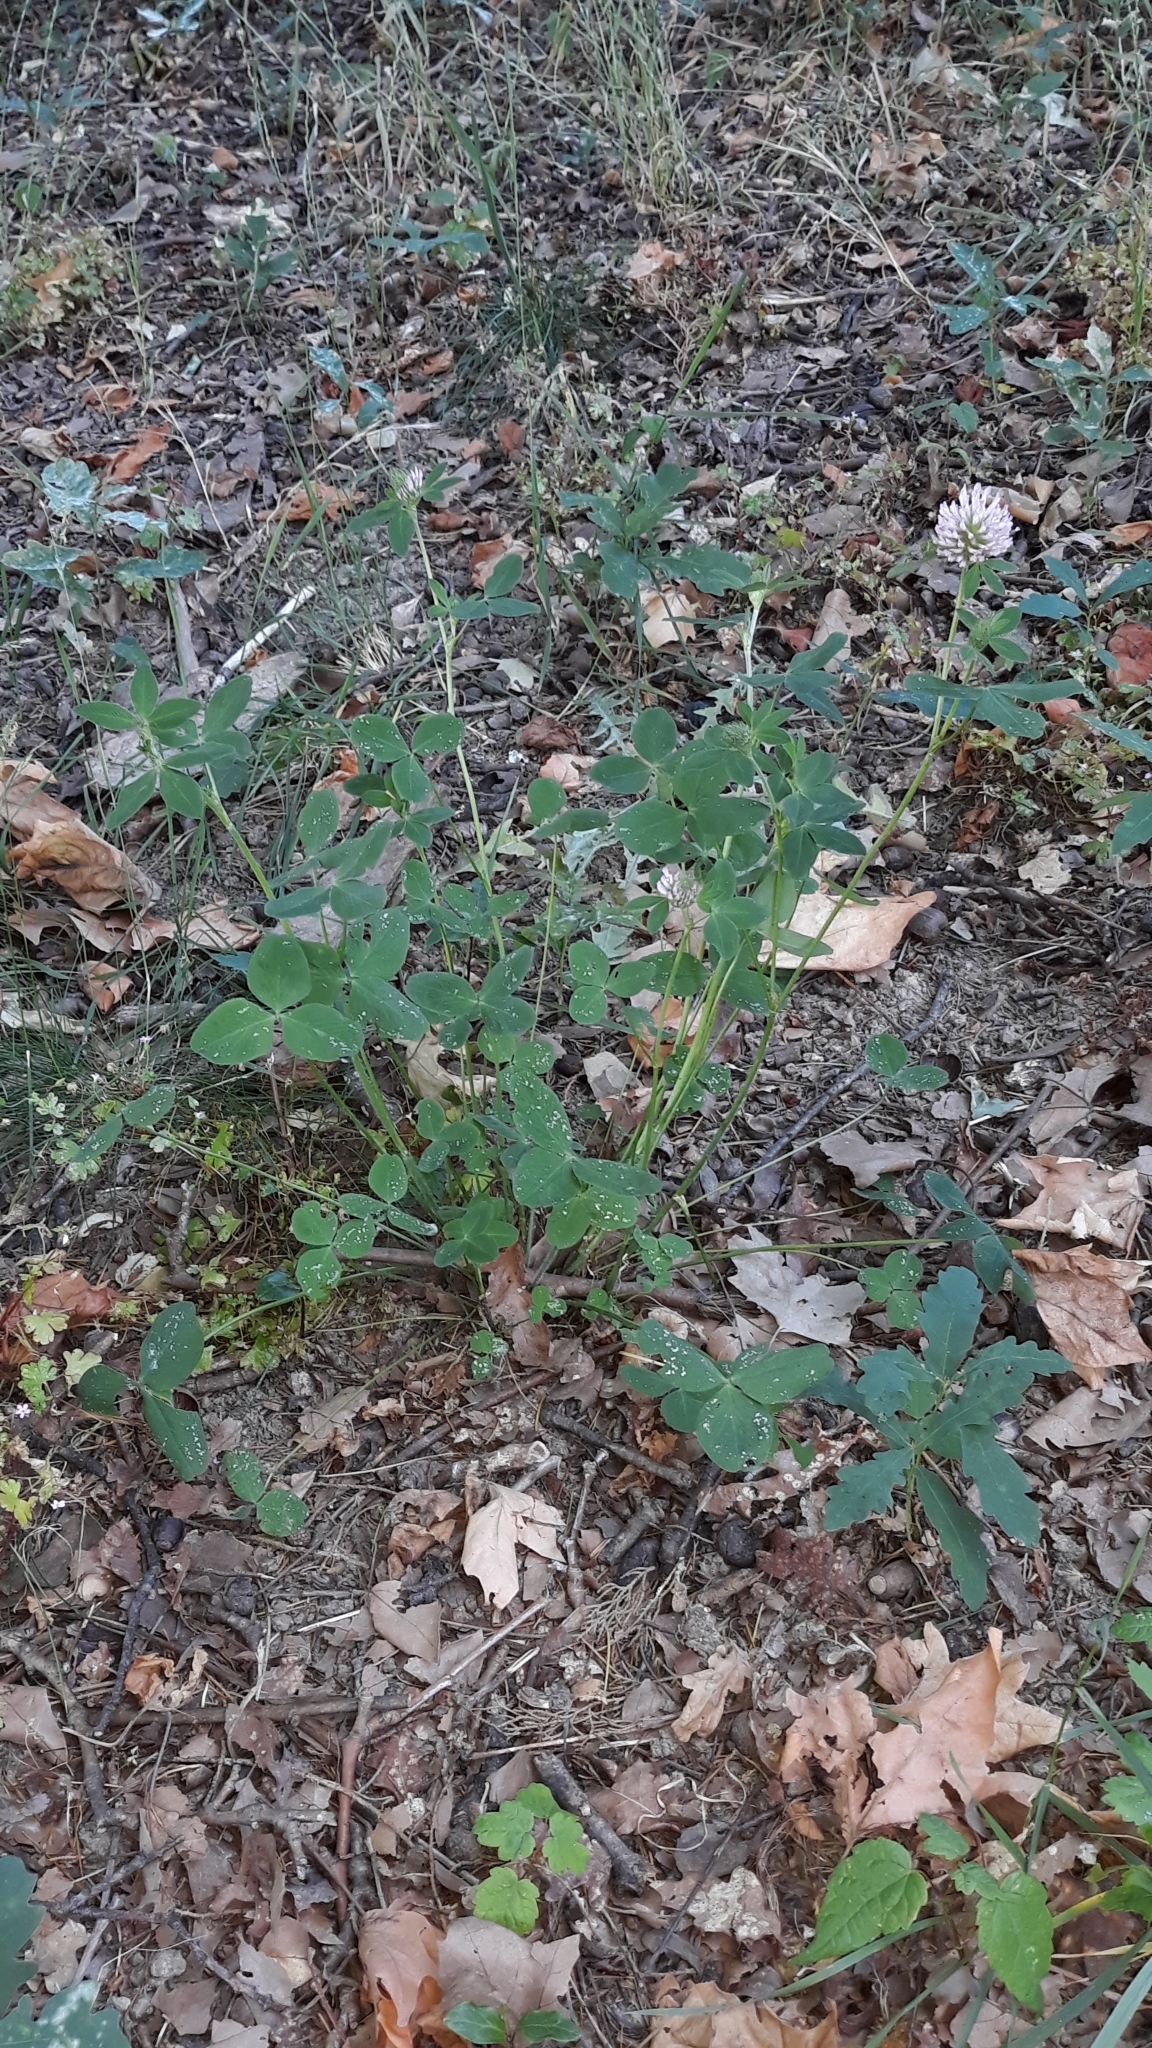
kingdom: Plantae
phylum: Tracheophyta
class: Magnoliopsida
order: Fabales
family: Fabaceae
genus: Trifolium
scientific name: Trifolium pratense
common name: Red clover
